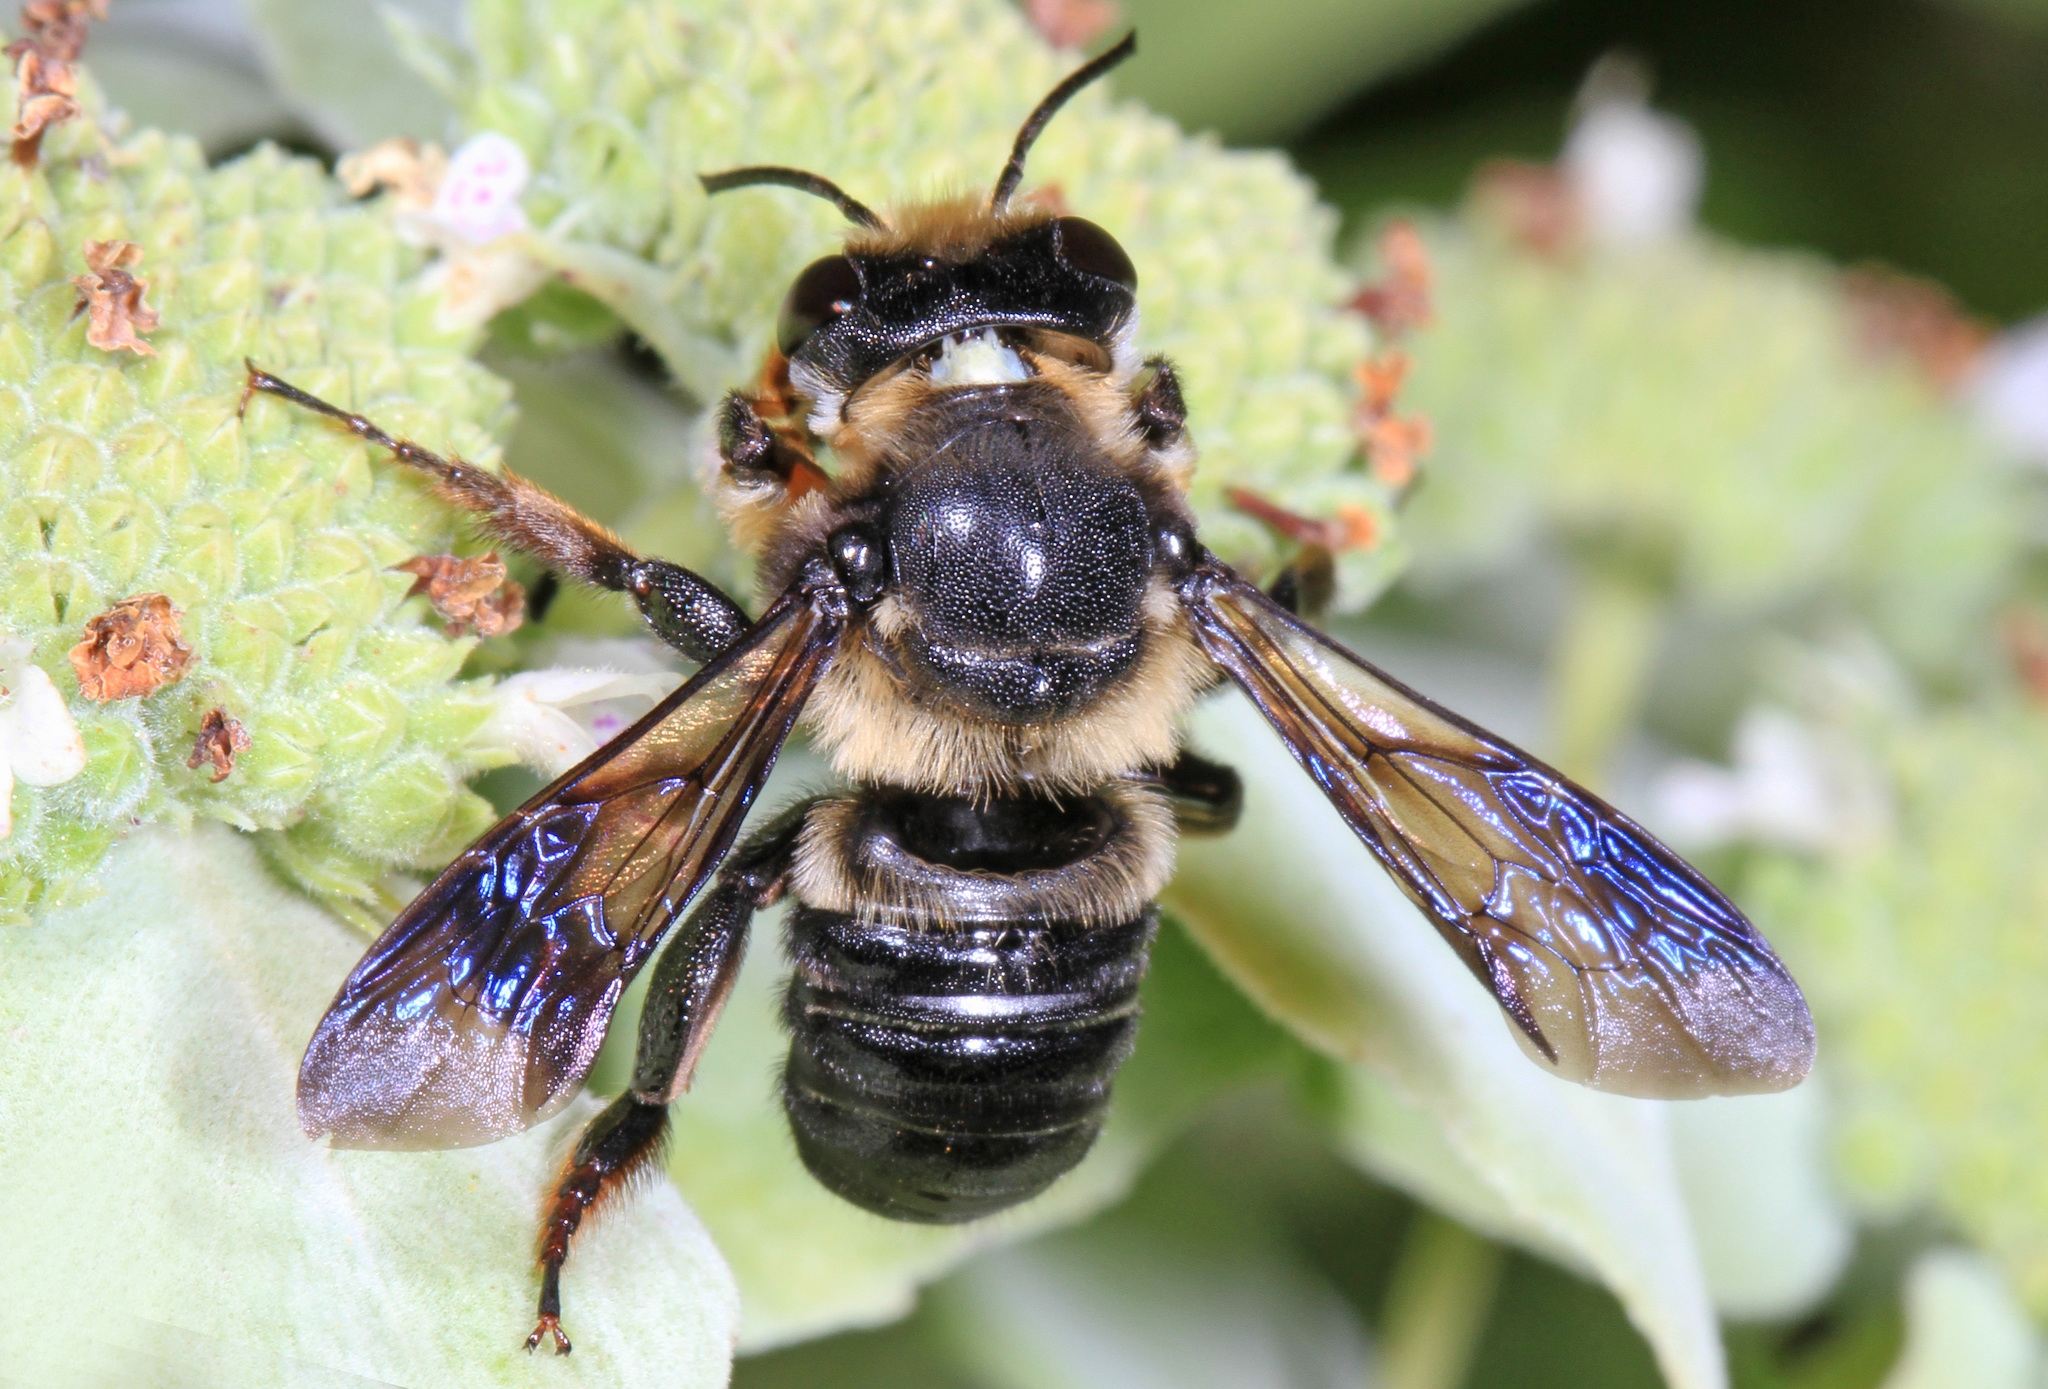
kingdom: Animalia
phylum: Arthropoda
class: Insecta
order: Hymenoptera
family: Megachilidae
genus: Megachile
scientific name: Megachile xylocopoides
